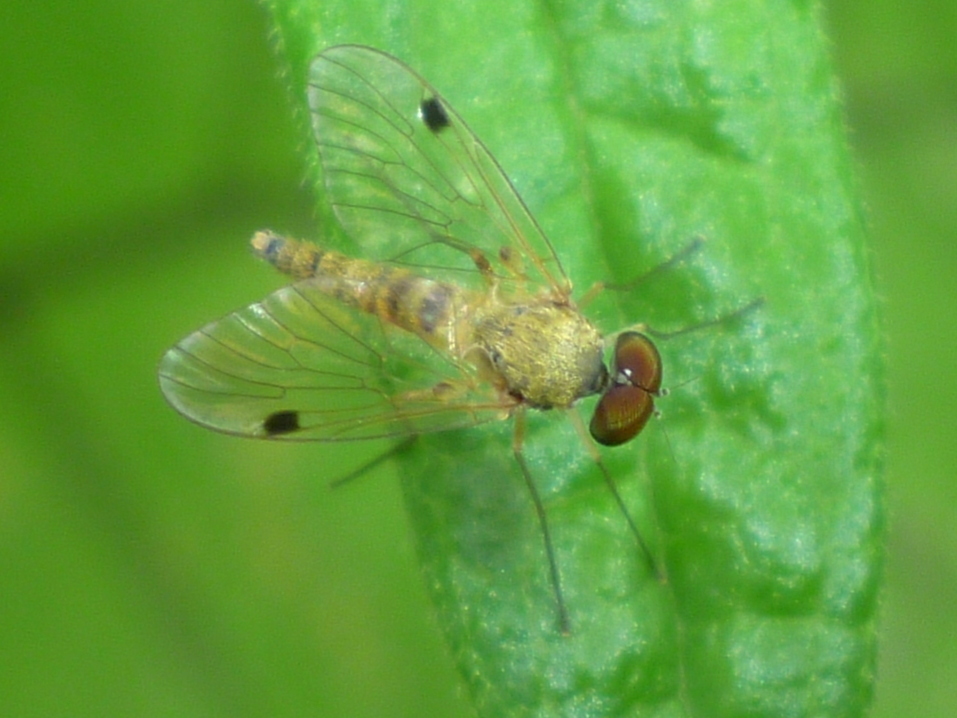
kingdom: Animalia
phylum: Arthropoda
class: Insecta
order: Diptera
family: Rhagionidae
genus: Chrysopilus
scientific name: Chrysopilus modestus
